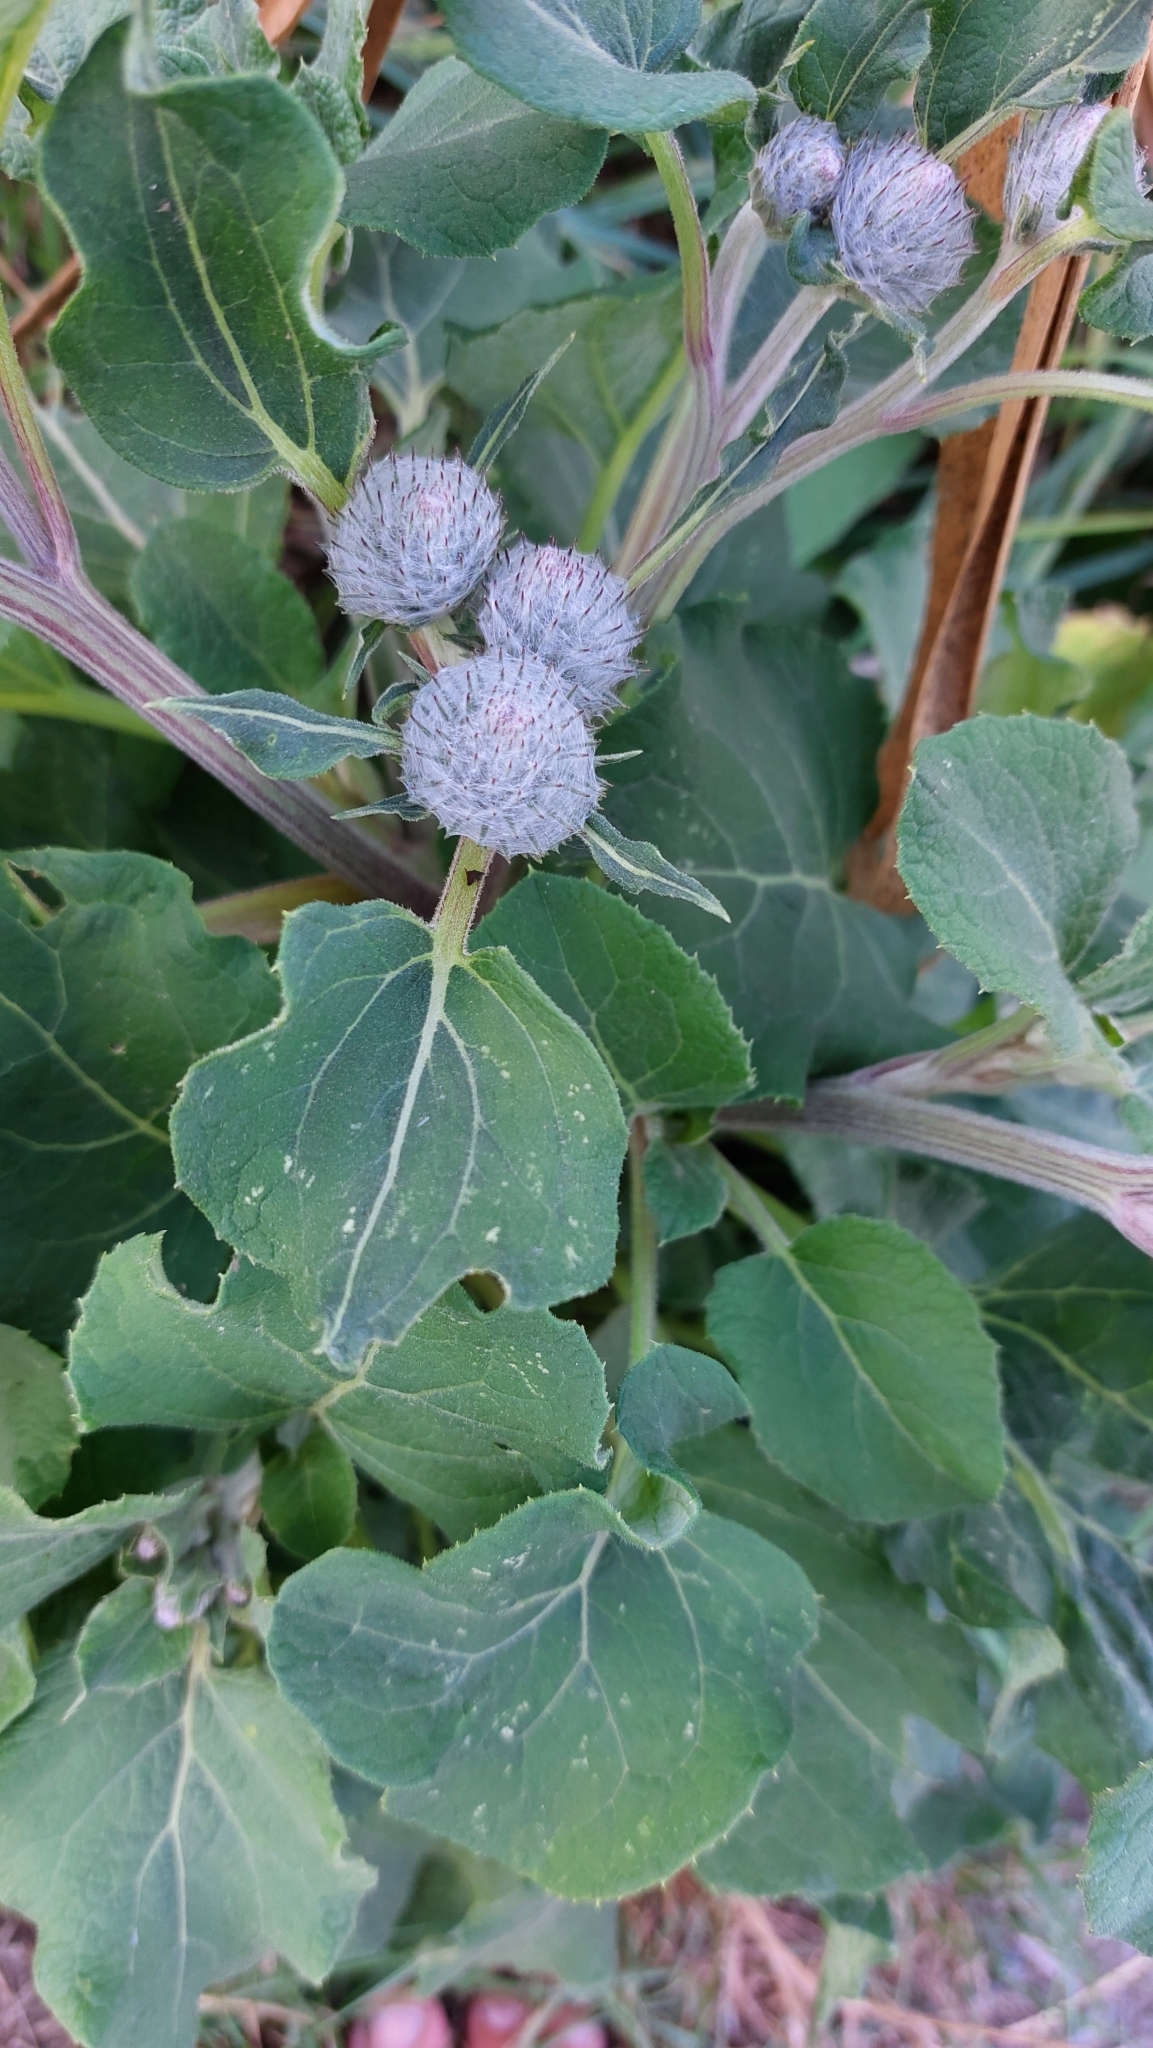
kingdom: Plantae
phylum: Tracheophyta
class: Magnoliopsida
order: Asterales
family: Asteraceae
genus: Arctium
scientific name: Arctium tomentosum
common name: Woolly burdock
